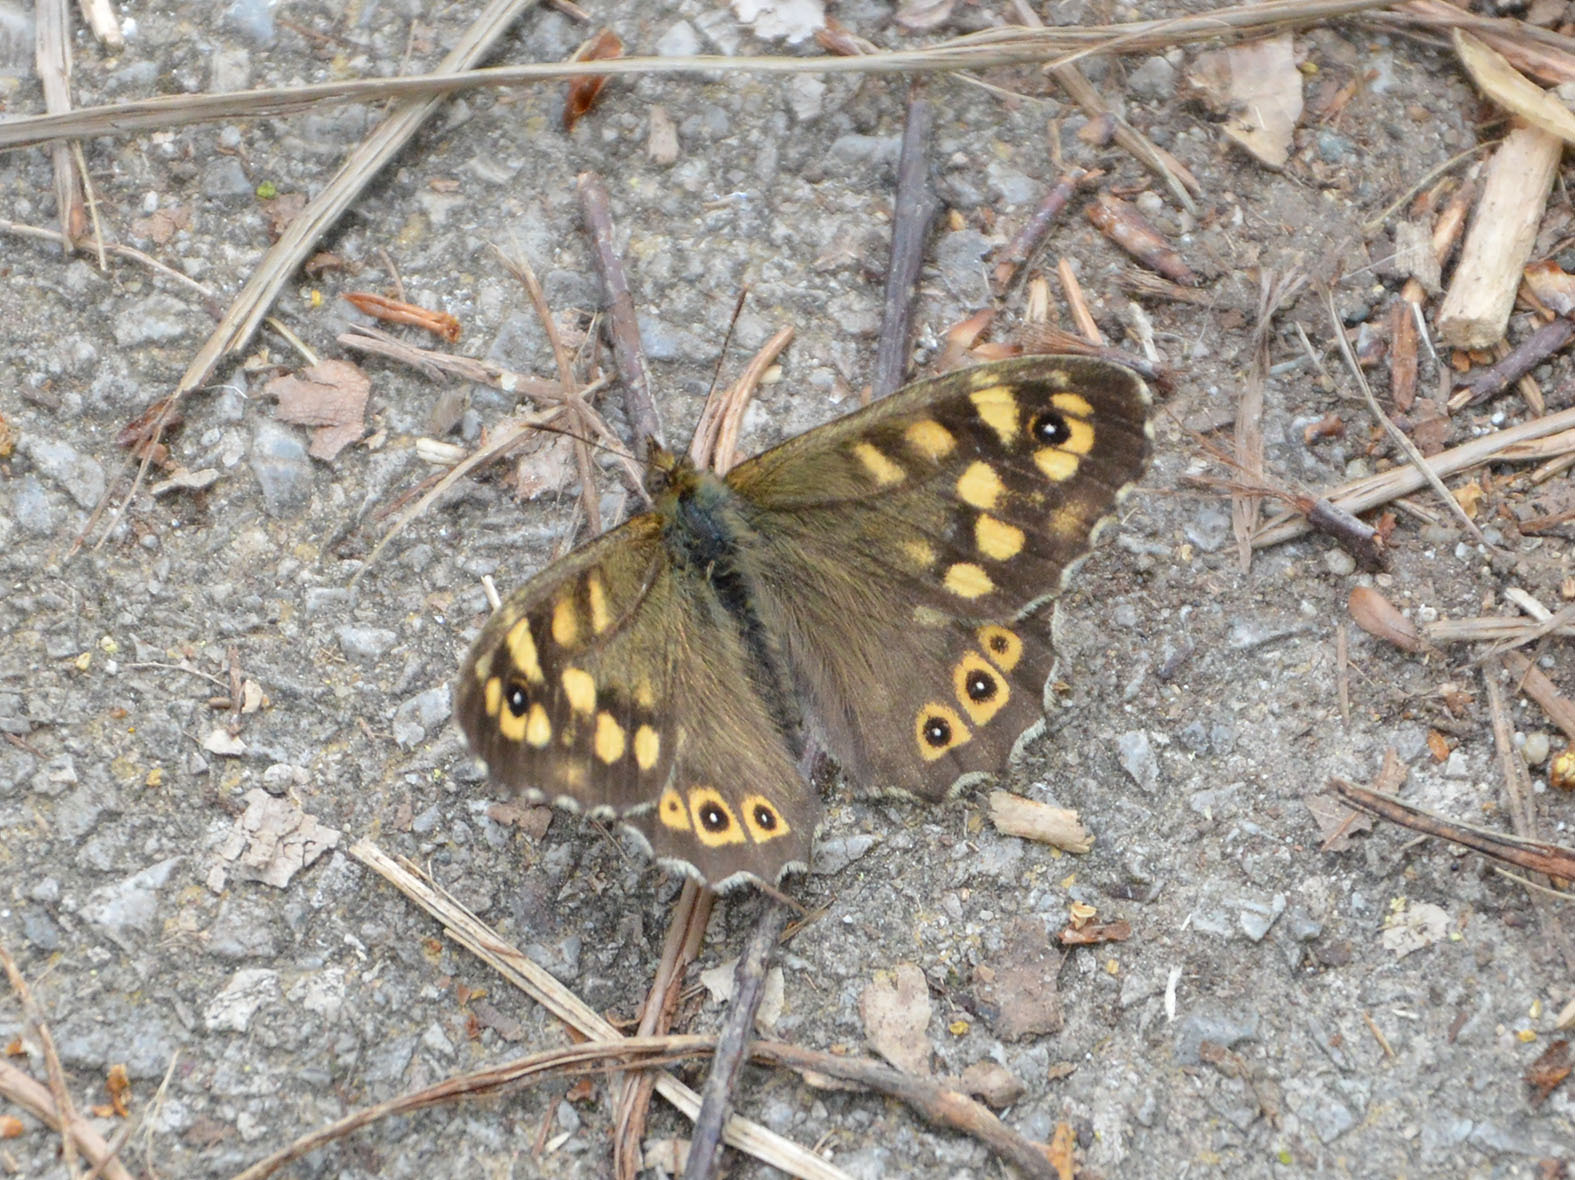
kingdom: Animalia
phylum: Arthropoda
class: Insecta
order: Lepidoptera
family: Nymphalidae
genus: Pararge
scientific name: Pararge aegeria
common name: Speckled wood
